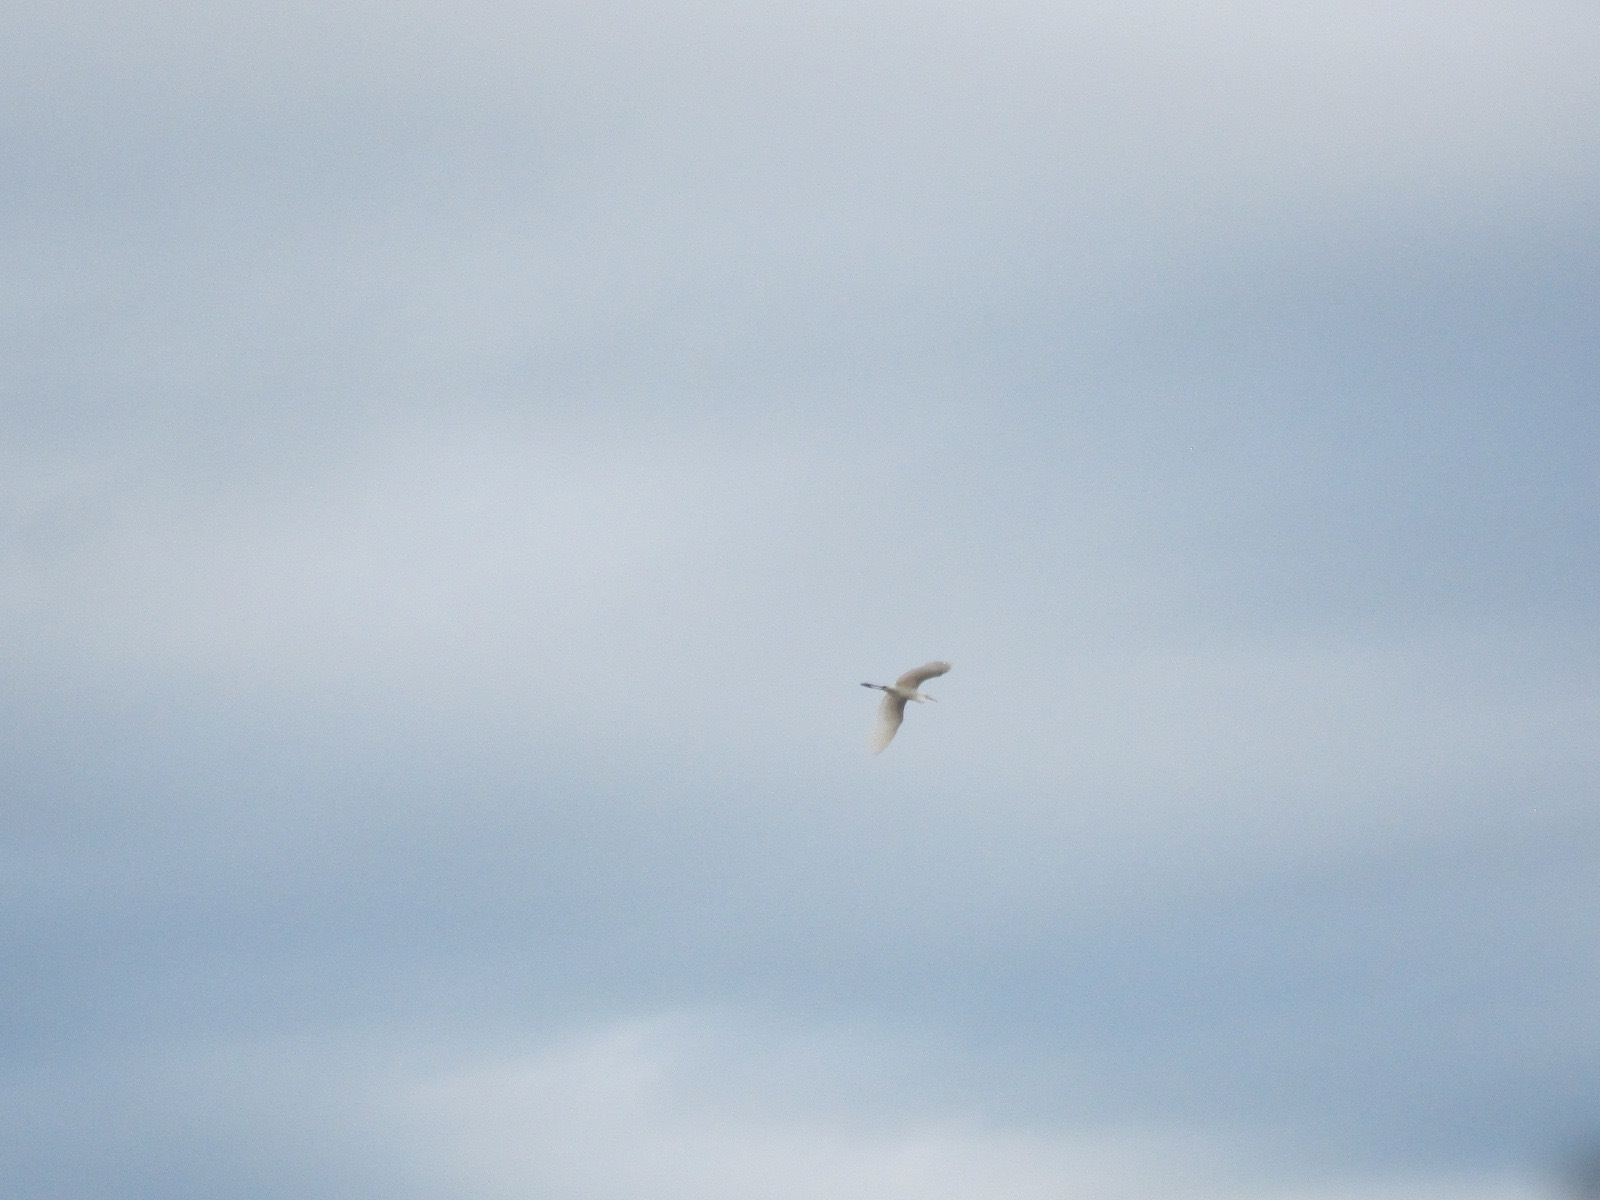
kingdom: Animalia
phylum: Chordata
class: Aves
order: Pelecaniformes
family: Ardeidae
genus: Ardea
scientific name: Ardea modesta
